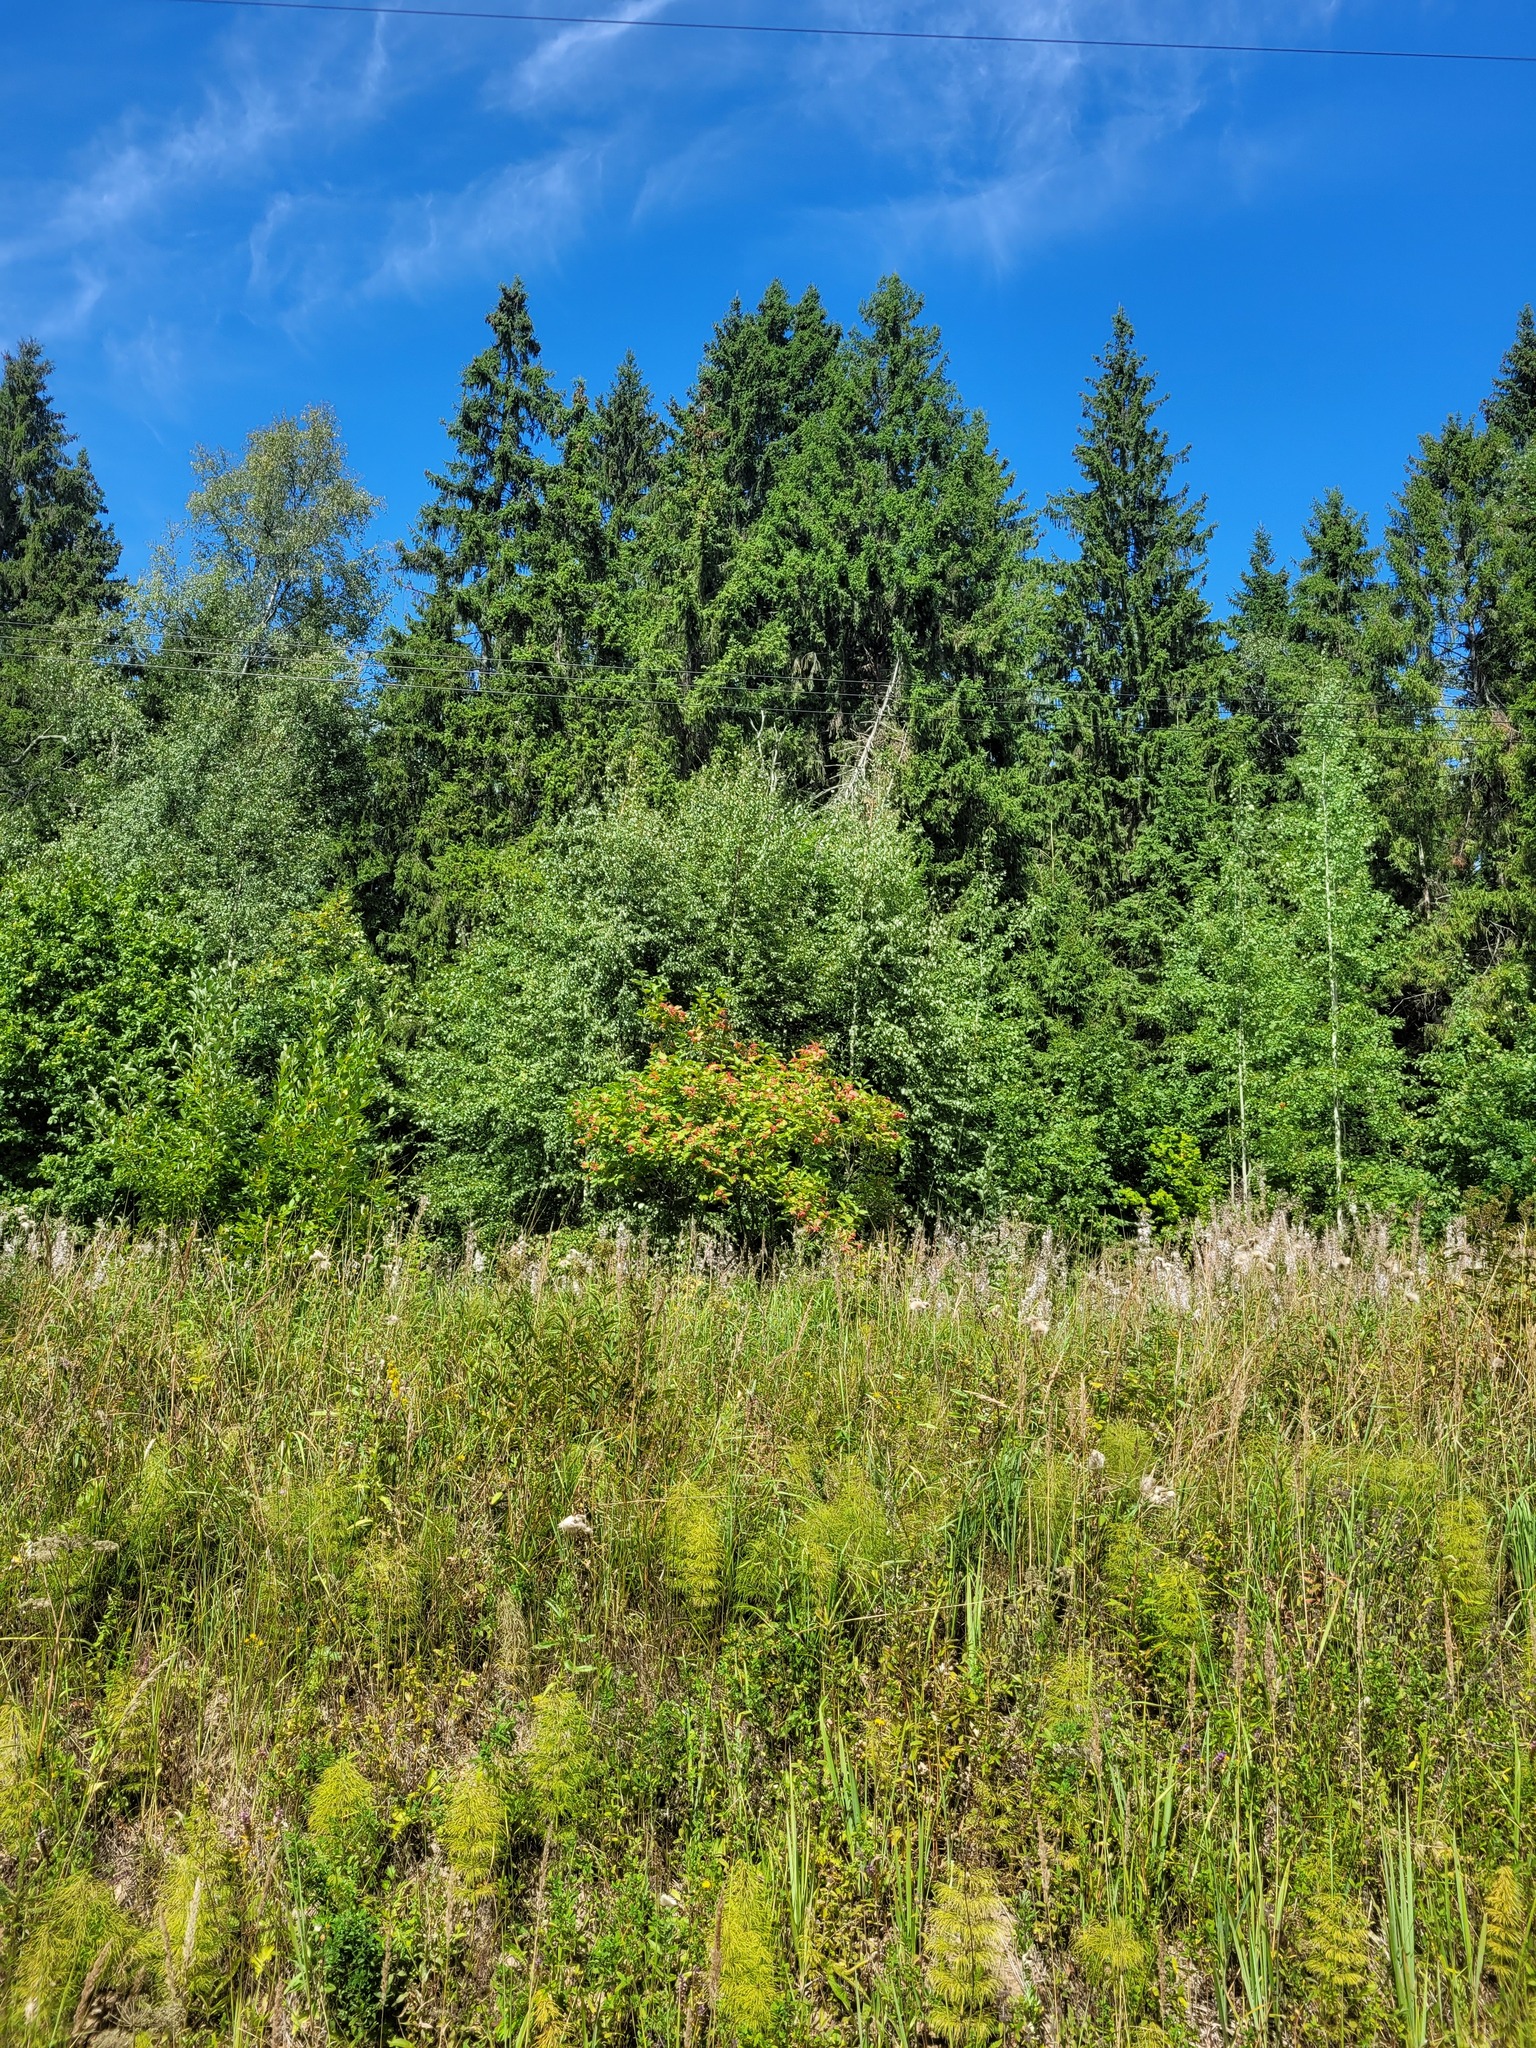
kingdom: Plantae
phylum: Tracheophyta
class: Magnoliopsida
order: Dipsacales
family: Viburnaceae
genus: Viburnum
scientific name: Viburnum opulus
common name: Guelder-rose
